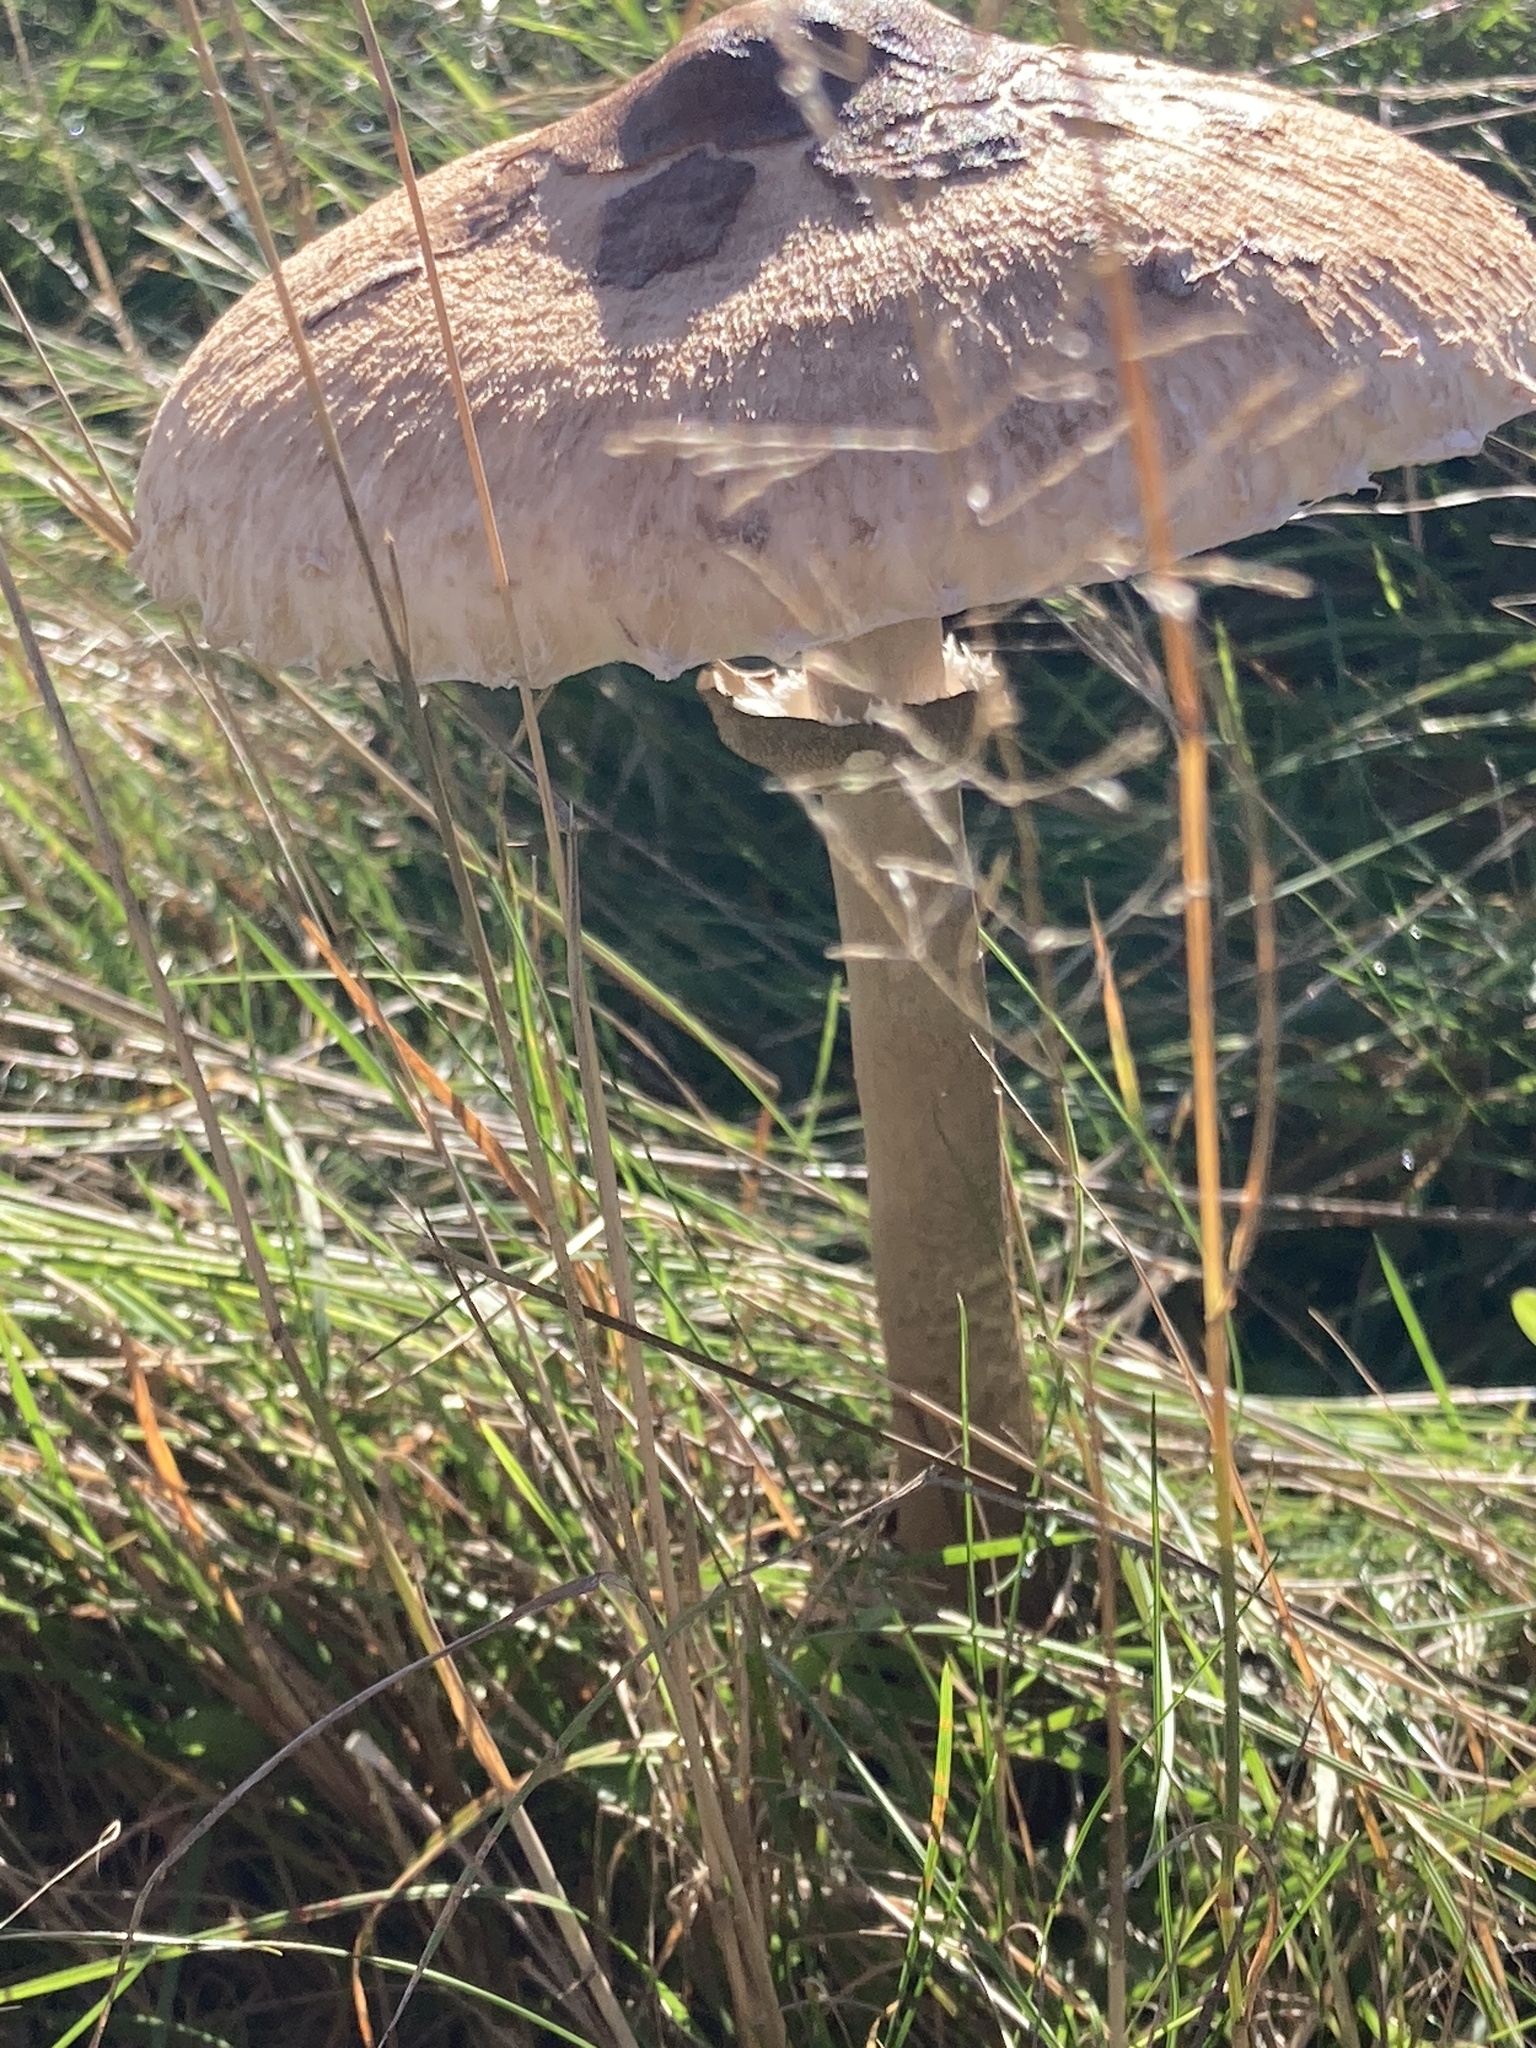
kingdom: Fungi
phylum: Basidiomycota
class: Agaricomycetes
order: Agaricales
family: Agaricaceae
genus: Macrolepiota
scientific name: Macrolepiota procera
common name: Parasol
